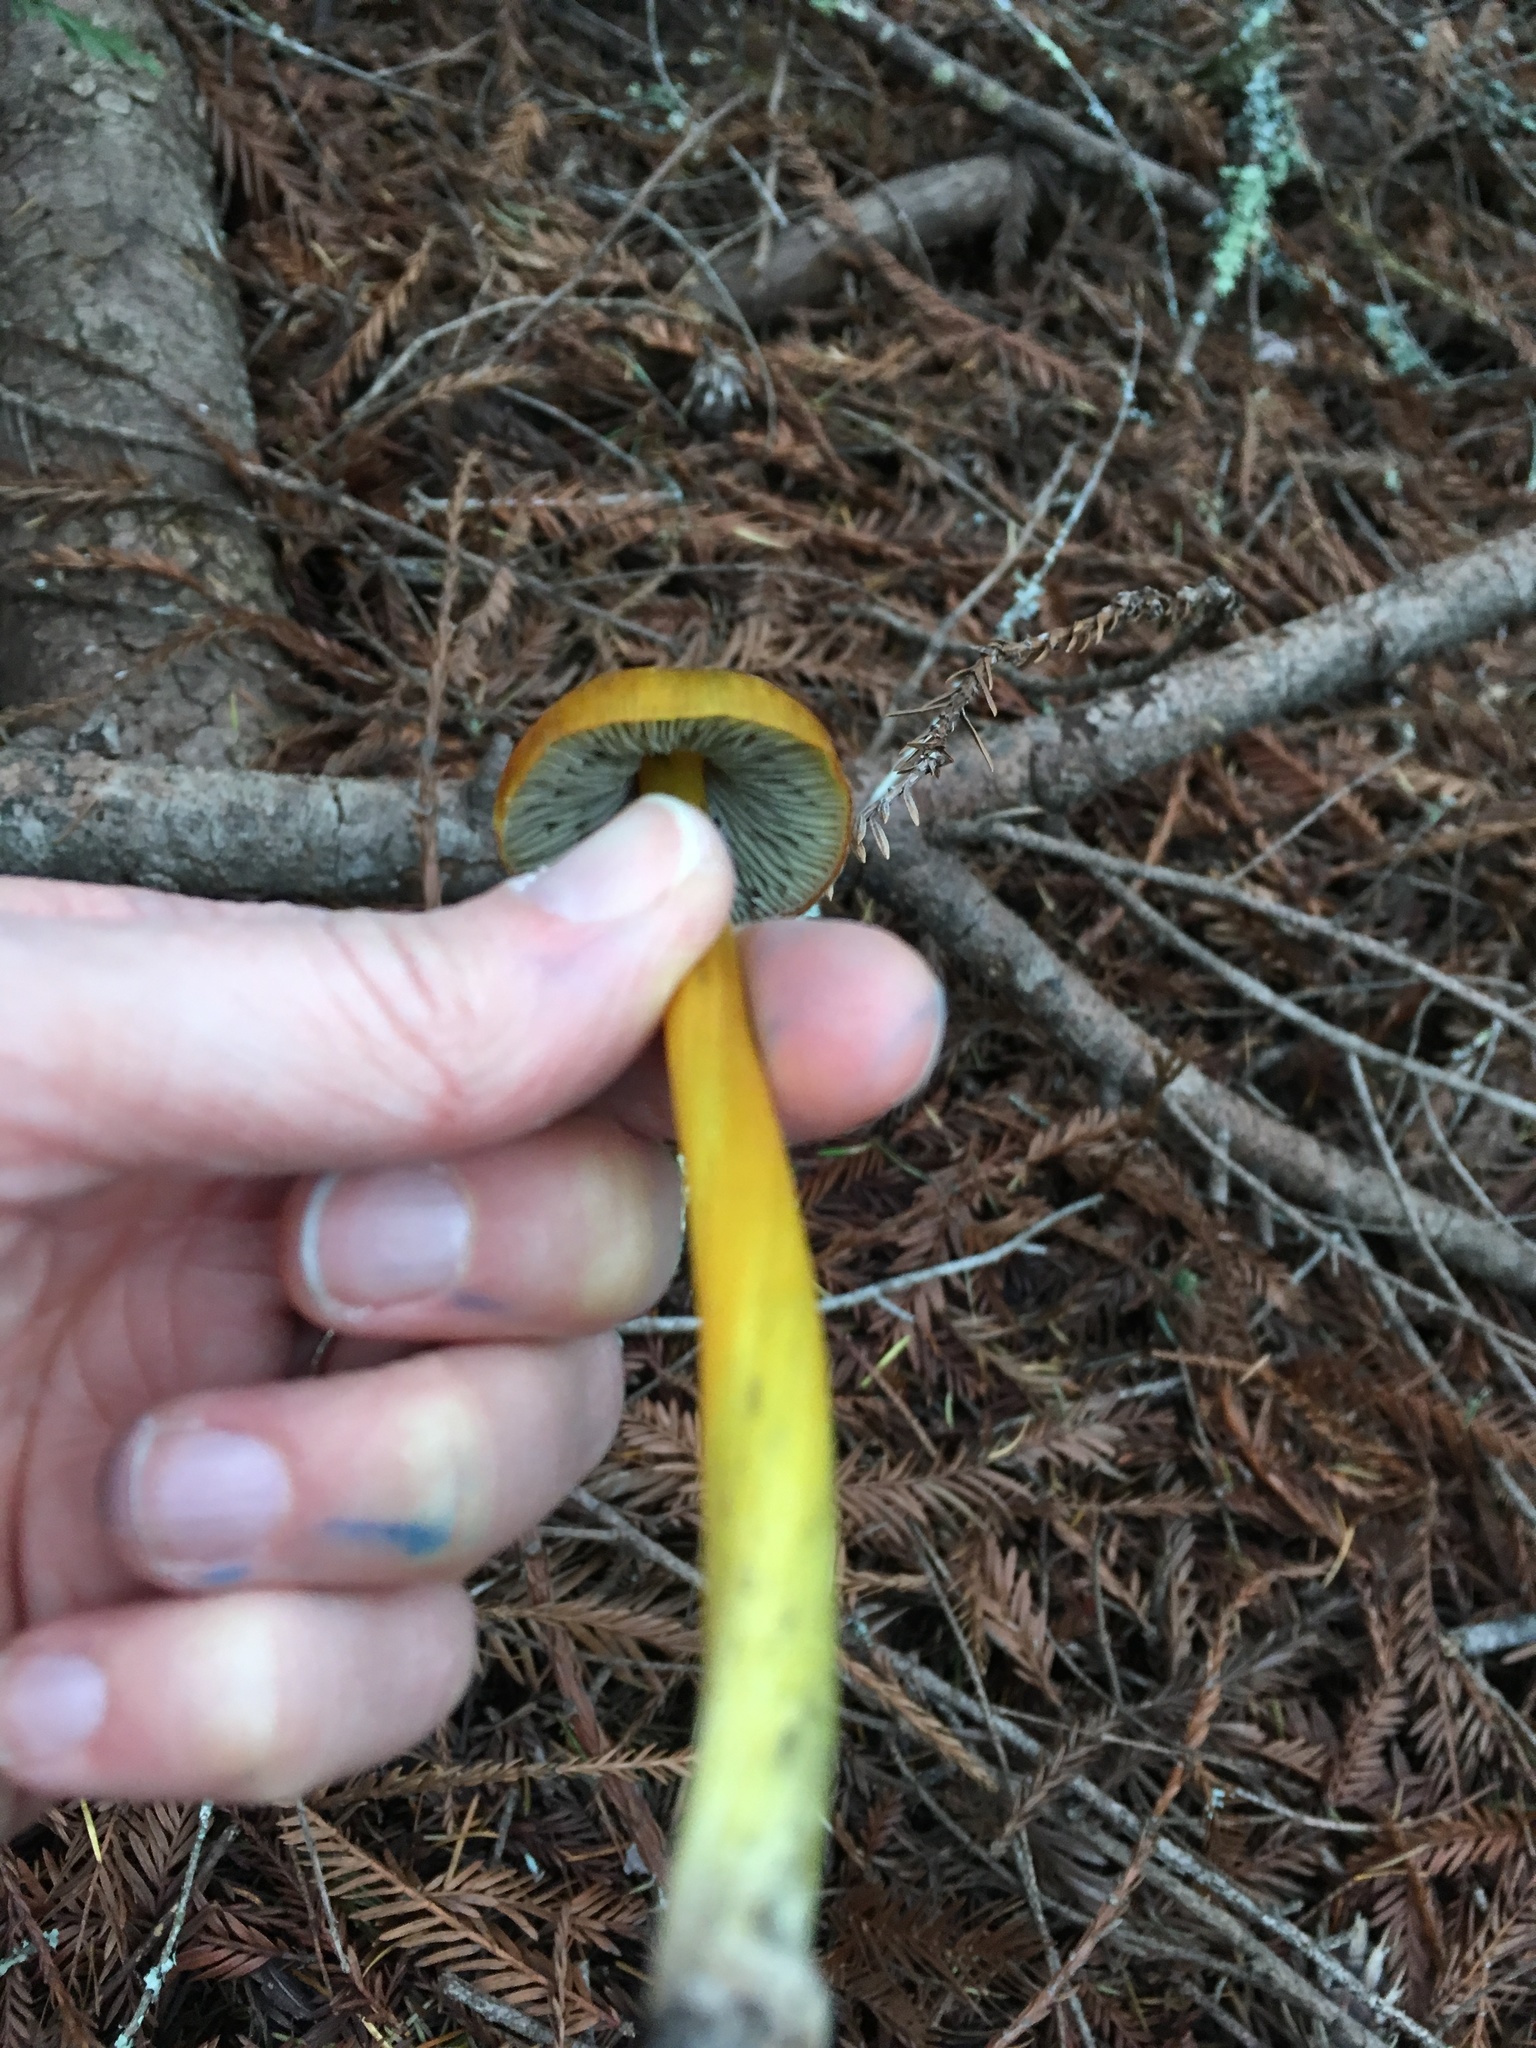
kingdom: Fungi
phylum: Basidiomycota
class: Agaricomycetes
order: Agaricales
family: Hygrophoraceae
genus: Hygrocybe
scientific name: Hygrocybe singeri
